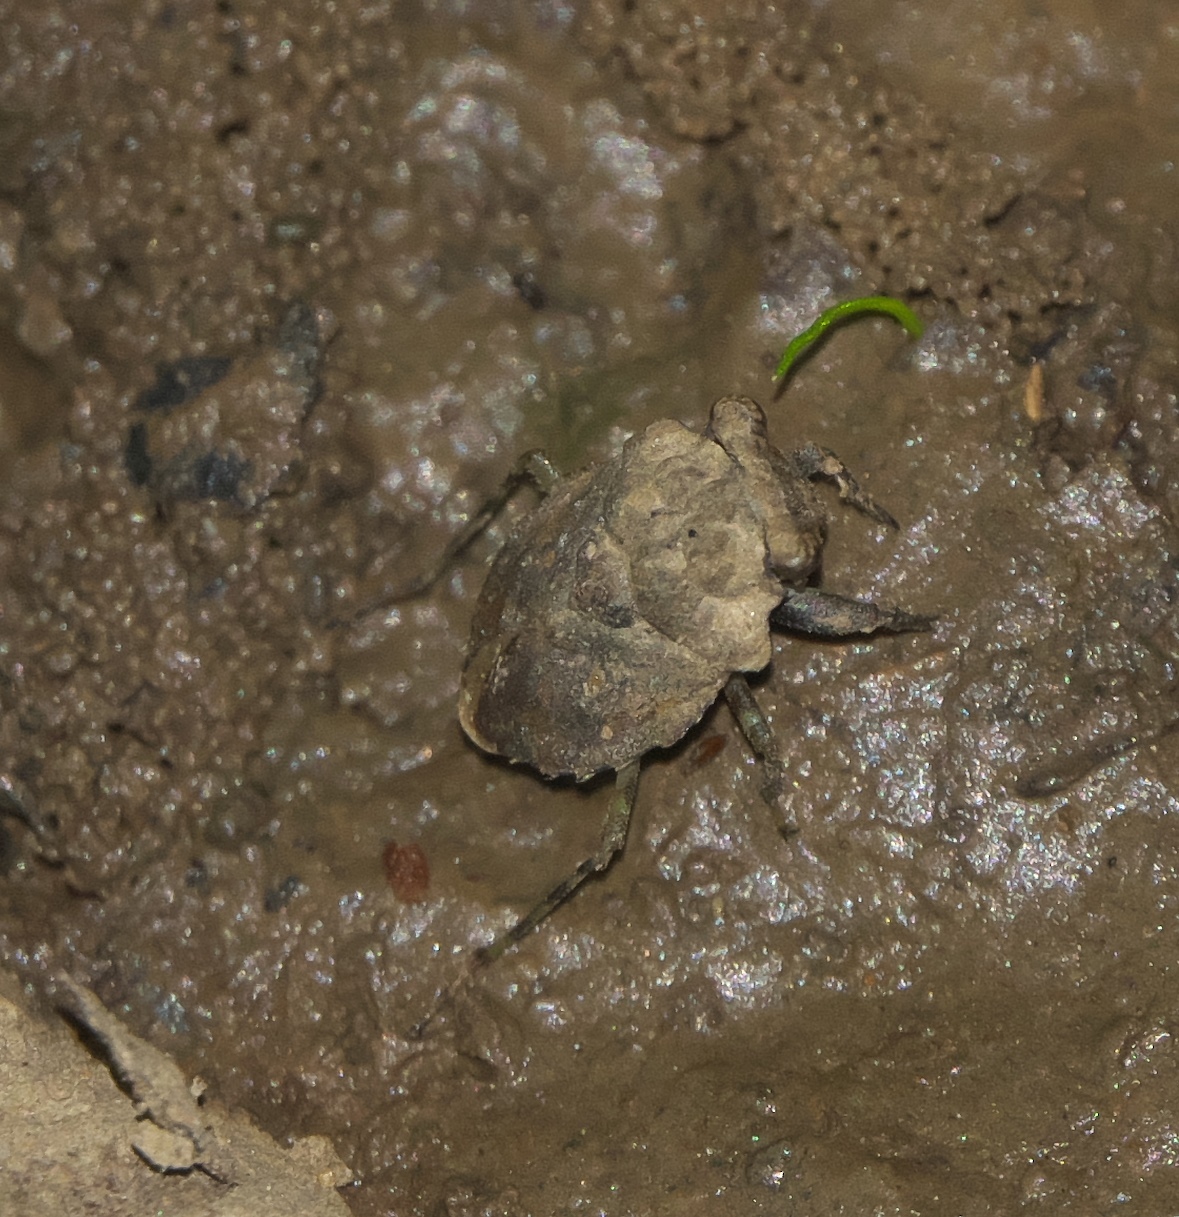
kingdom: Animalia
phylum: Arthropoda
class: Insecta
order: Hemiptera
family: Gelastocoridae
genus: Gelastocoris
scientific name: Gelastocoris oculatus
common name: Toad bug
